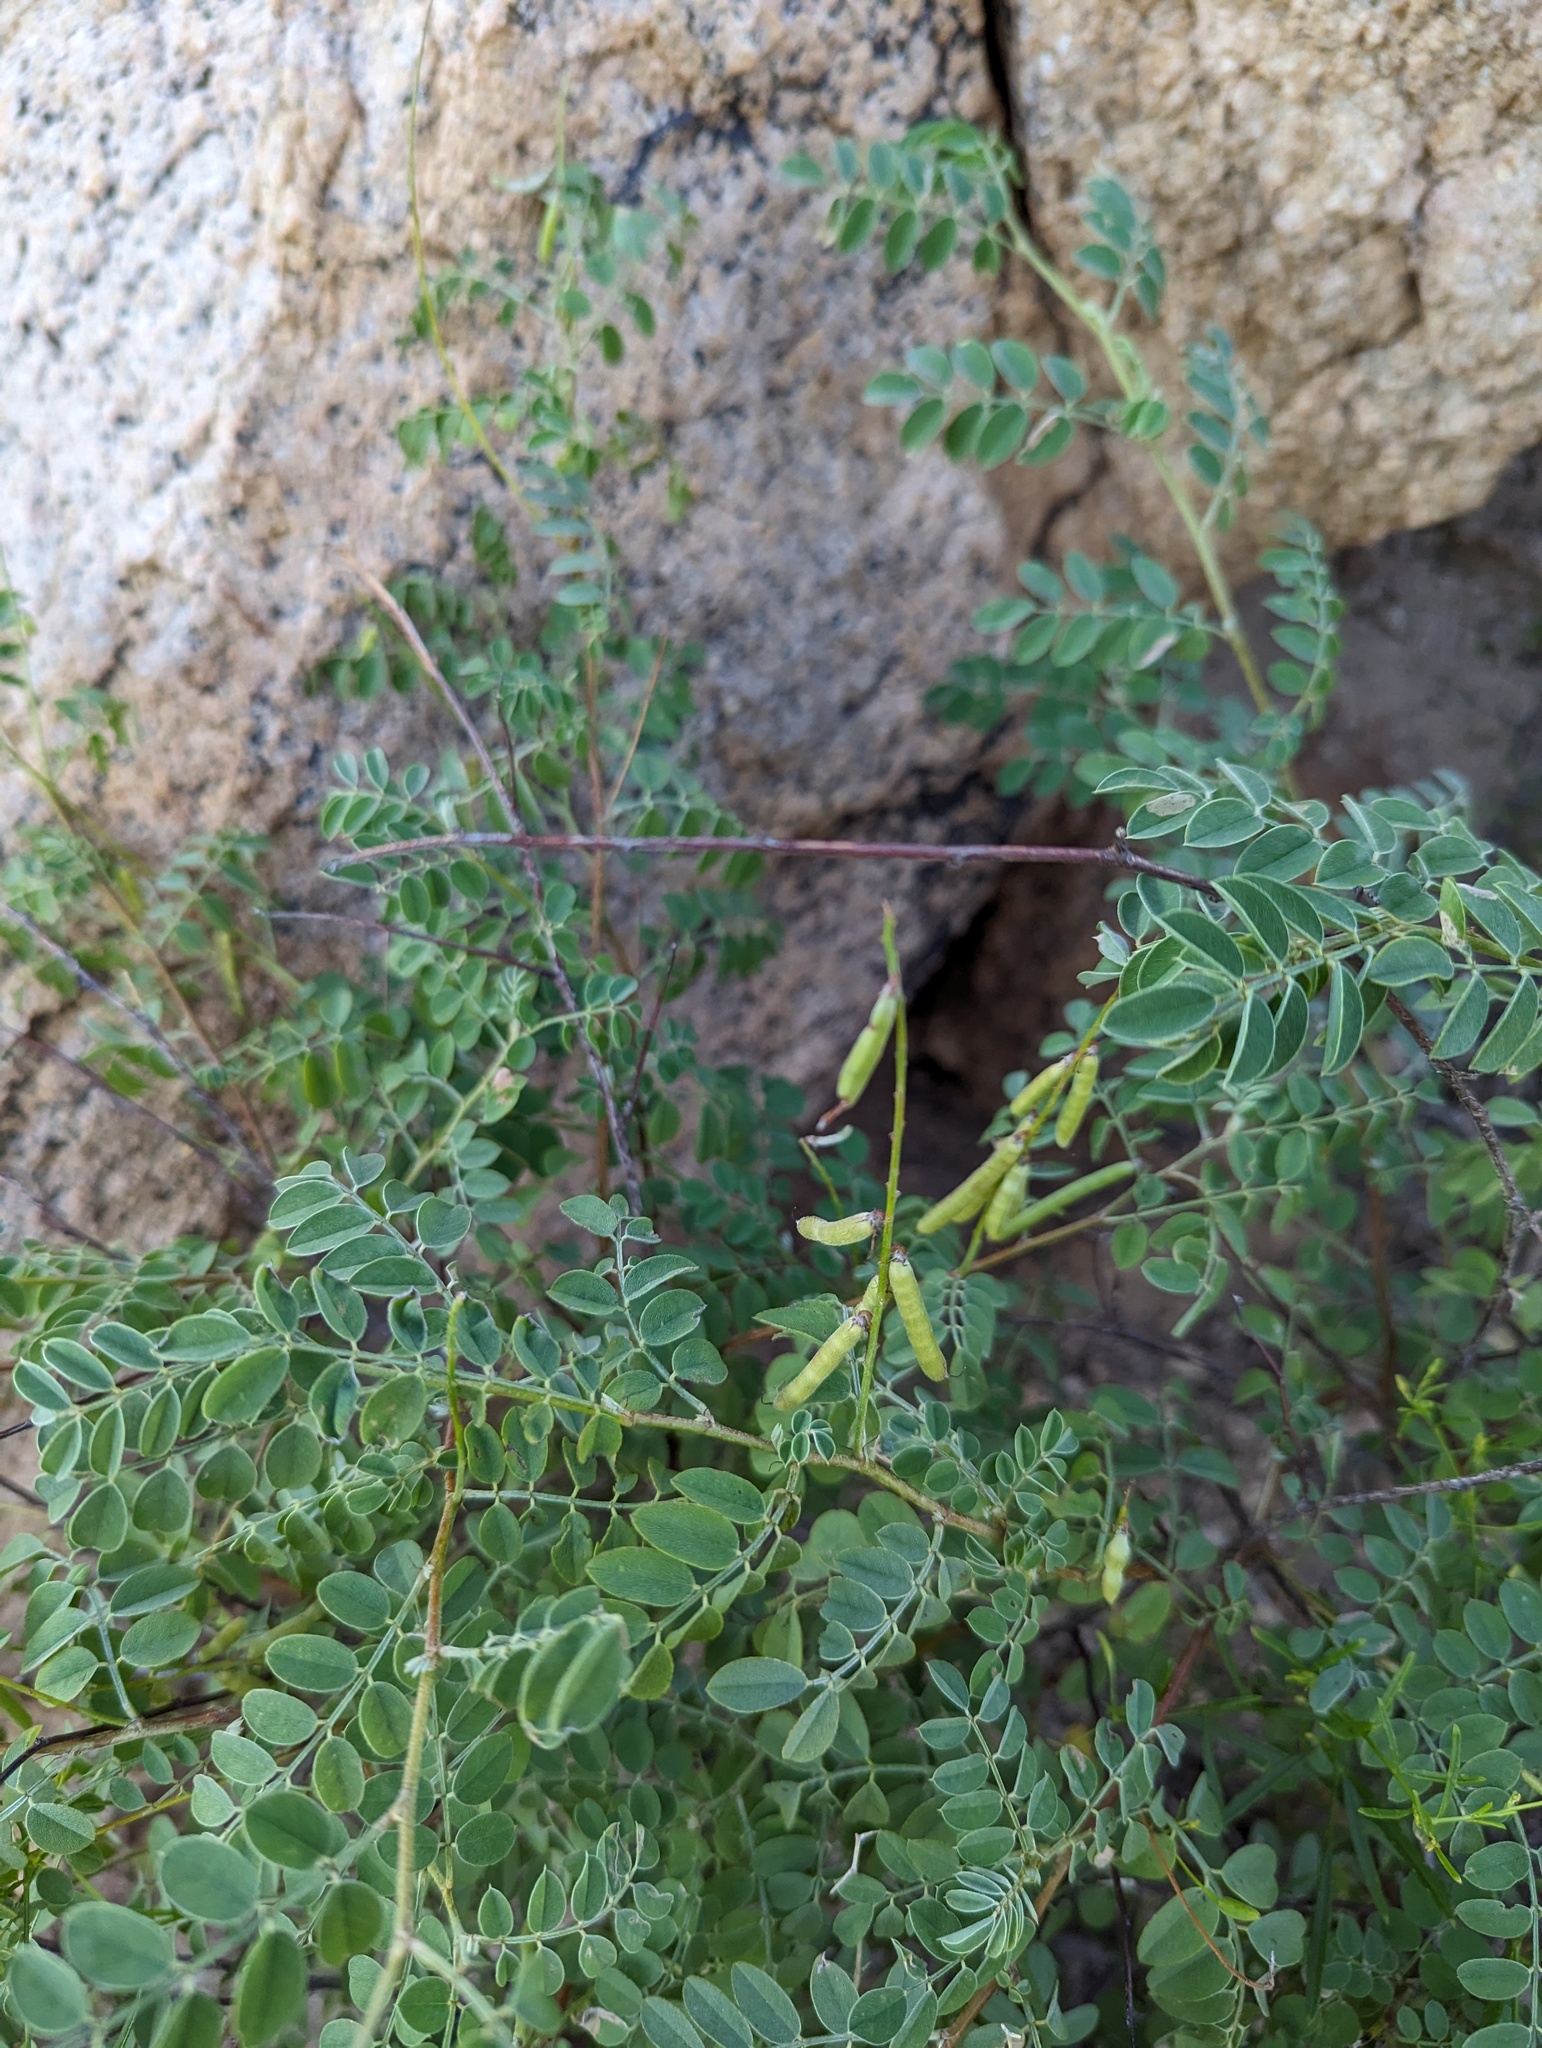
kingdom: Plantae
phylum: Tracheophyta
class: Magnoliopsida
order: Fabales
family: Fabaceae
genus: Indigofera
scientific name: Indigofera fruticosa
